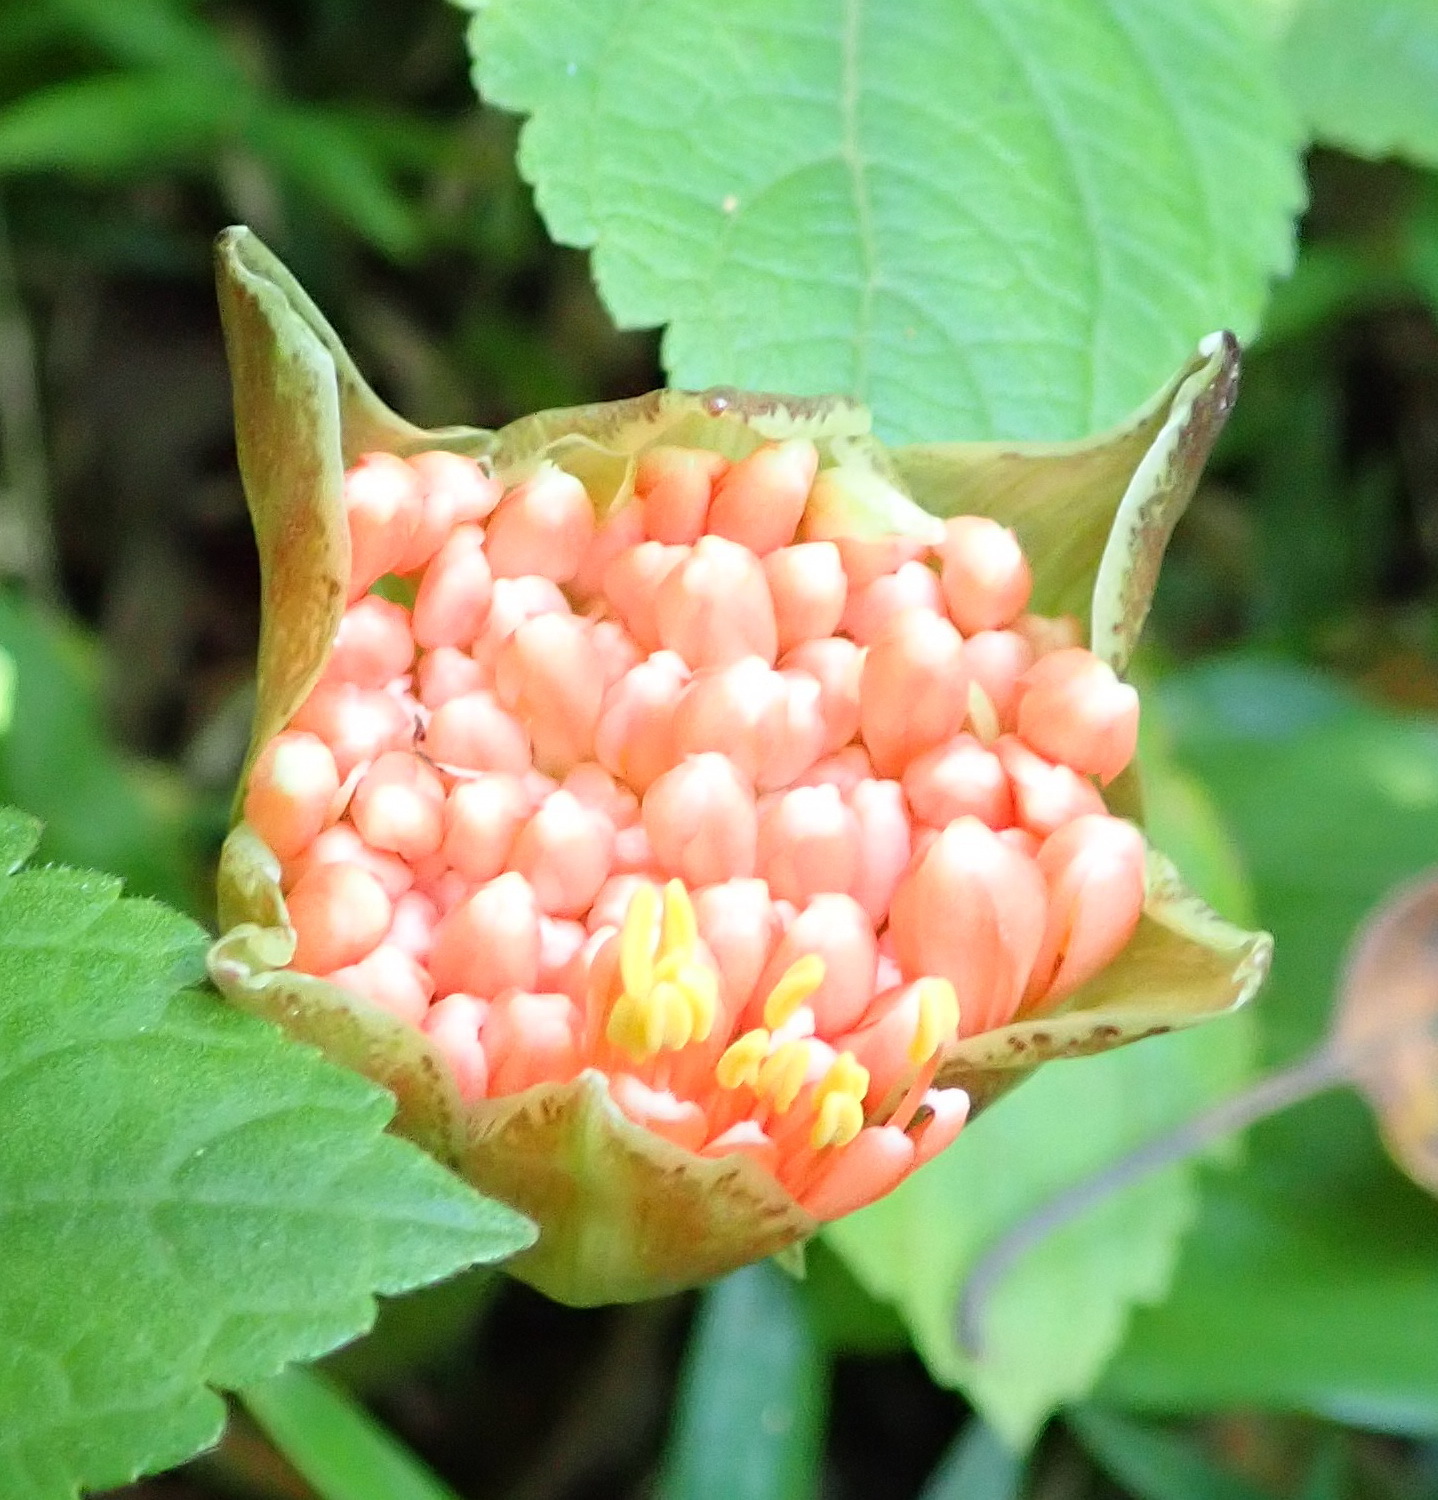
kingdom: Plantae
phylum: Tracheophyta
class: Liliopsida
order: Asparagales
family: Amaryllidaceae
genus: Scadoxus
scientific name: Scadoxus puniceus
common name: Royal-paintbrush
